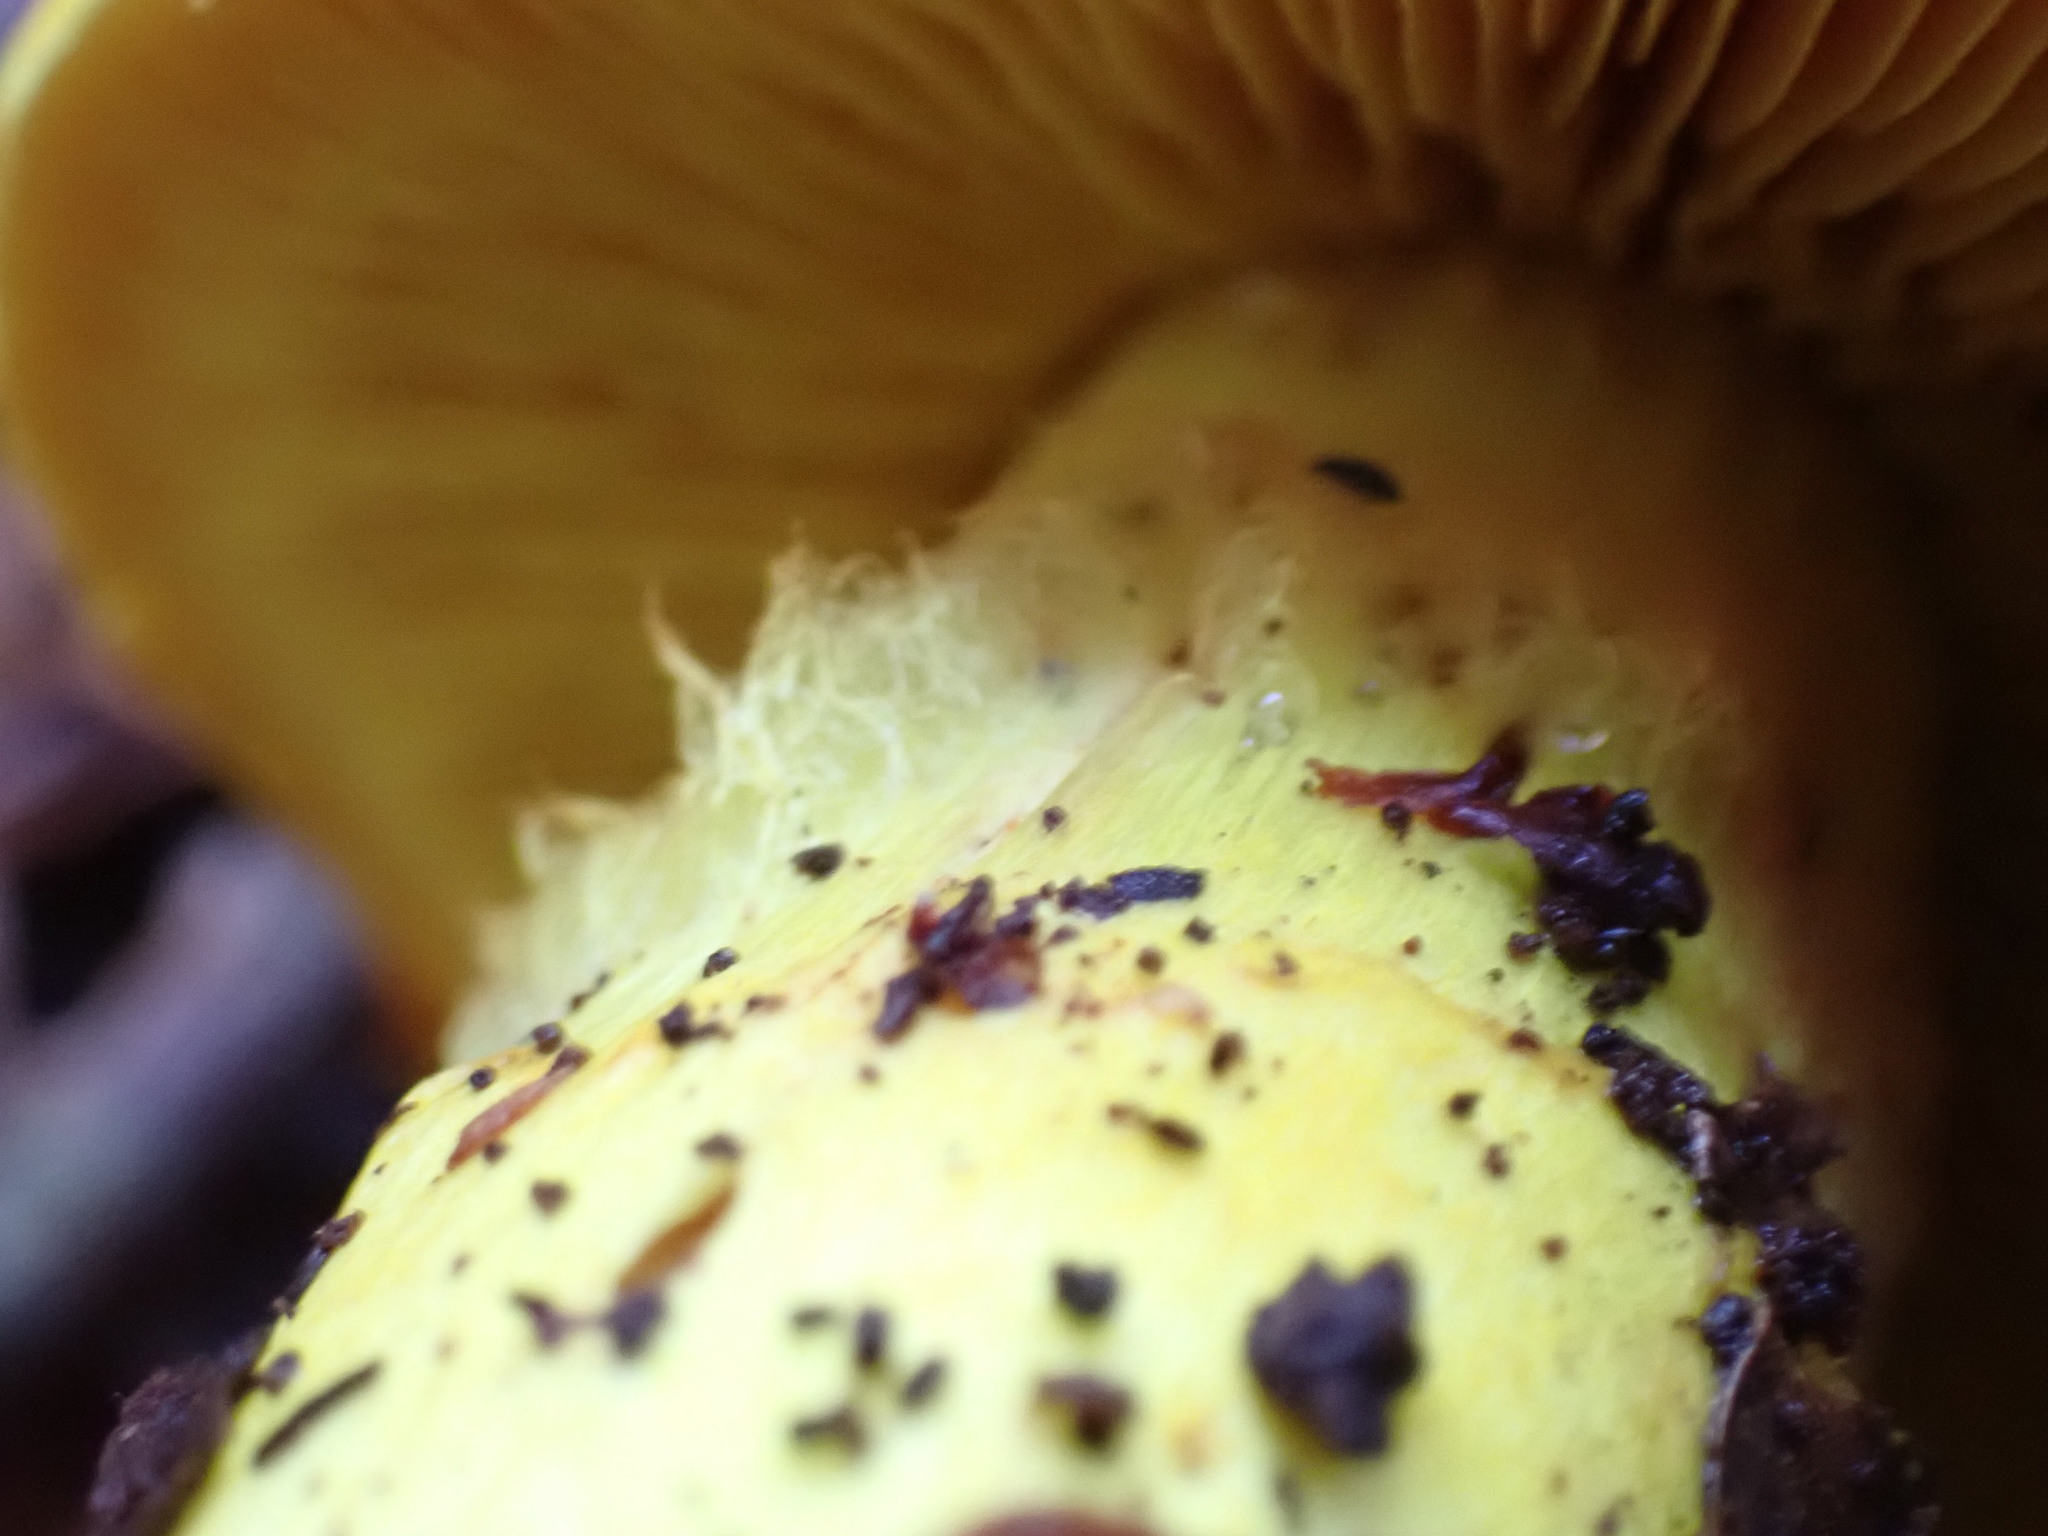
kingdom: Fungi
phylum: Basidiomycota
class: Agaricomycetes
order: Agaricales
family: Cortinariaceae
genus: Cortinarius
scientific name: Cortinarius canarius
